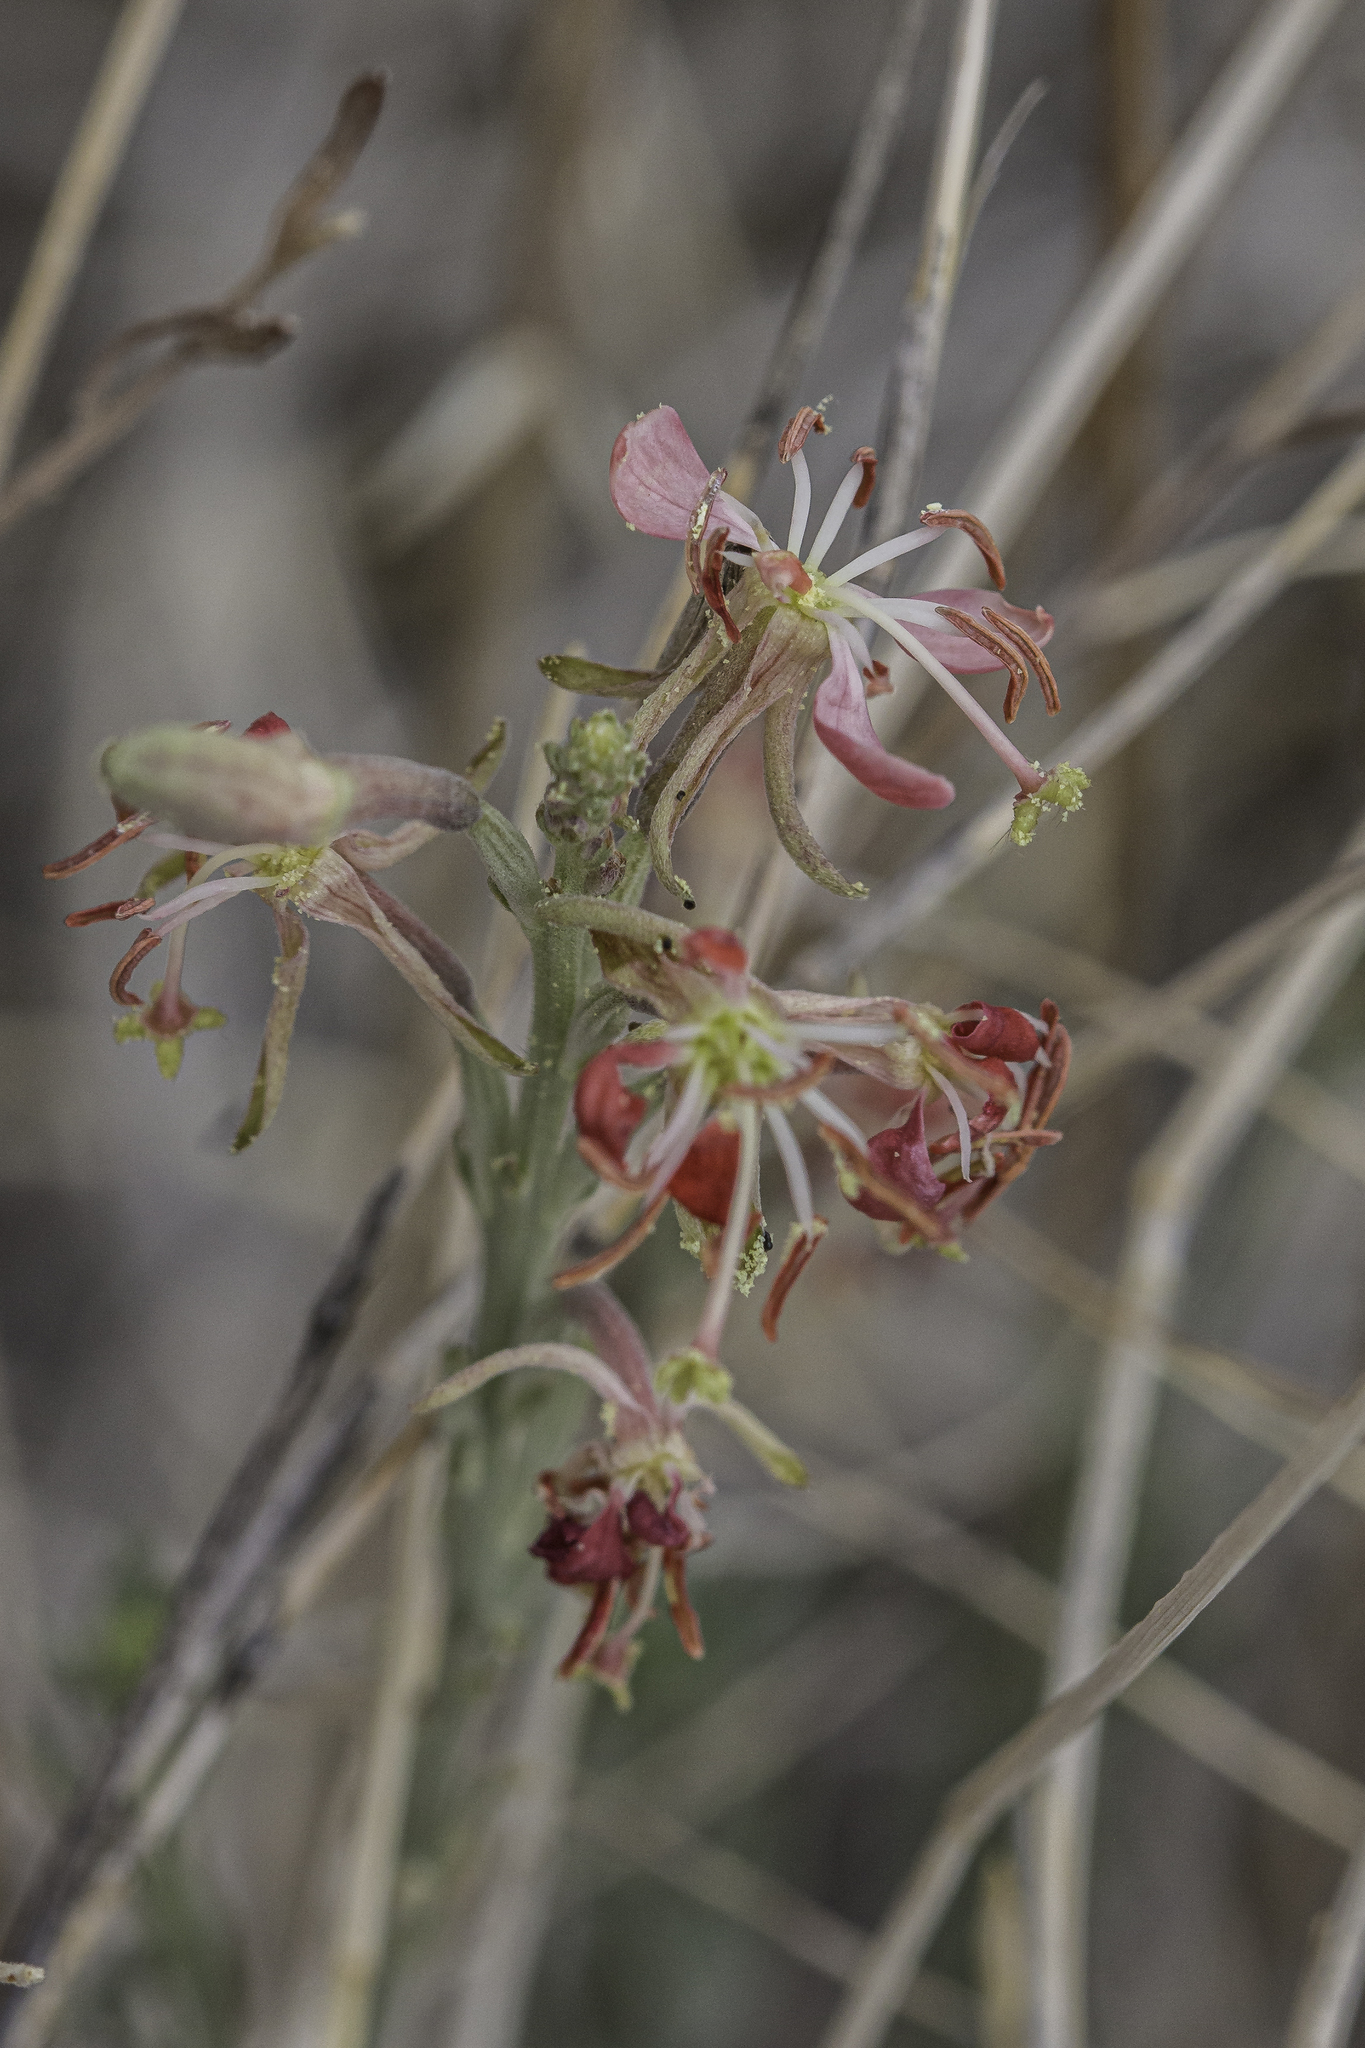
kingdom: Plantae
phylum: Tracheophyta
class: Magnoliopsida
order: Myrtales
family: Onagraceae
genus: Oenothera
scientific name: Oenothera suffrutescens
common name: Scarlet beeblossom
